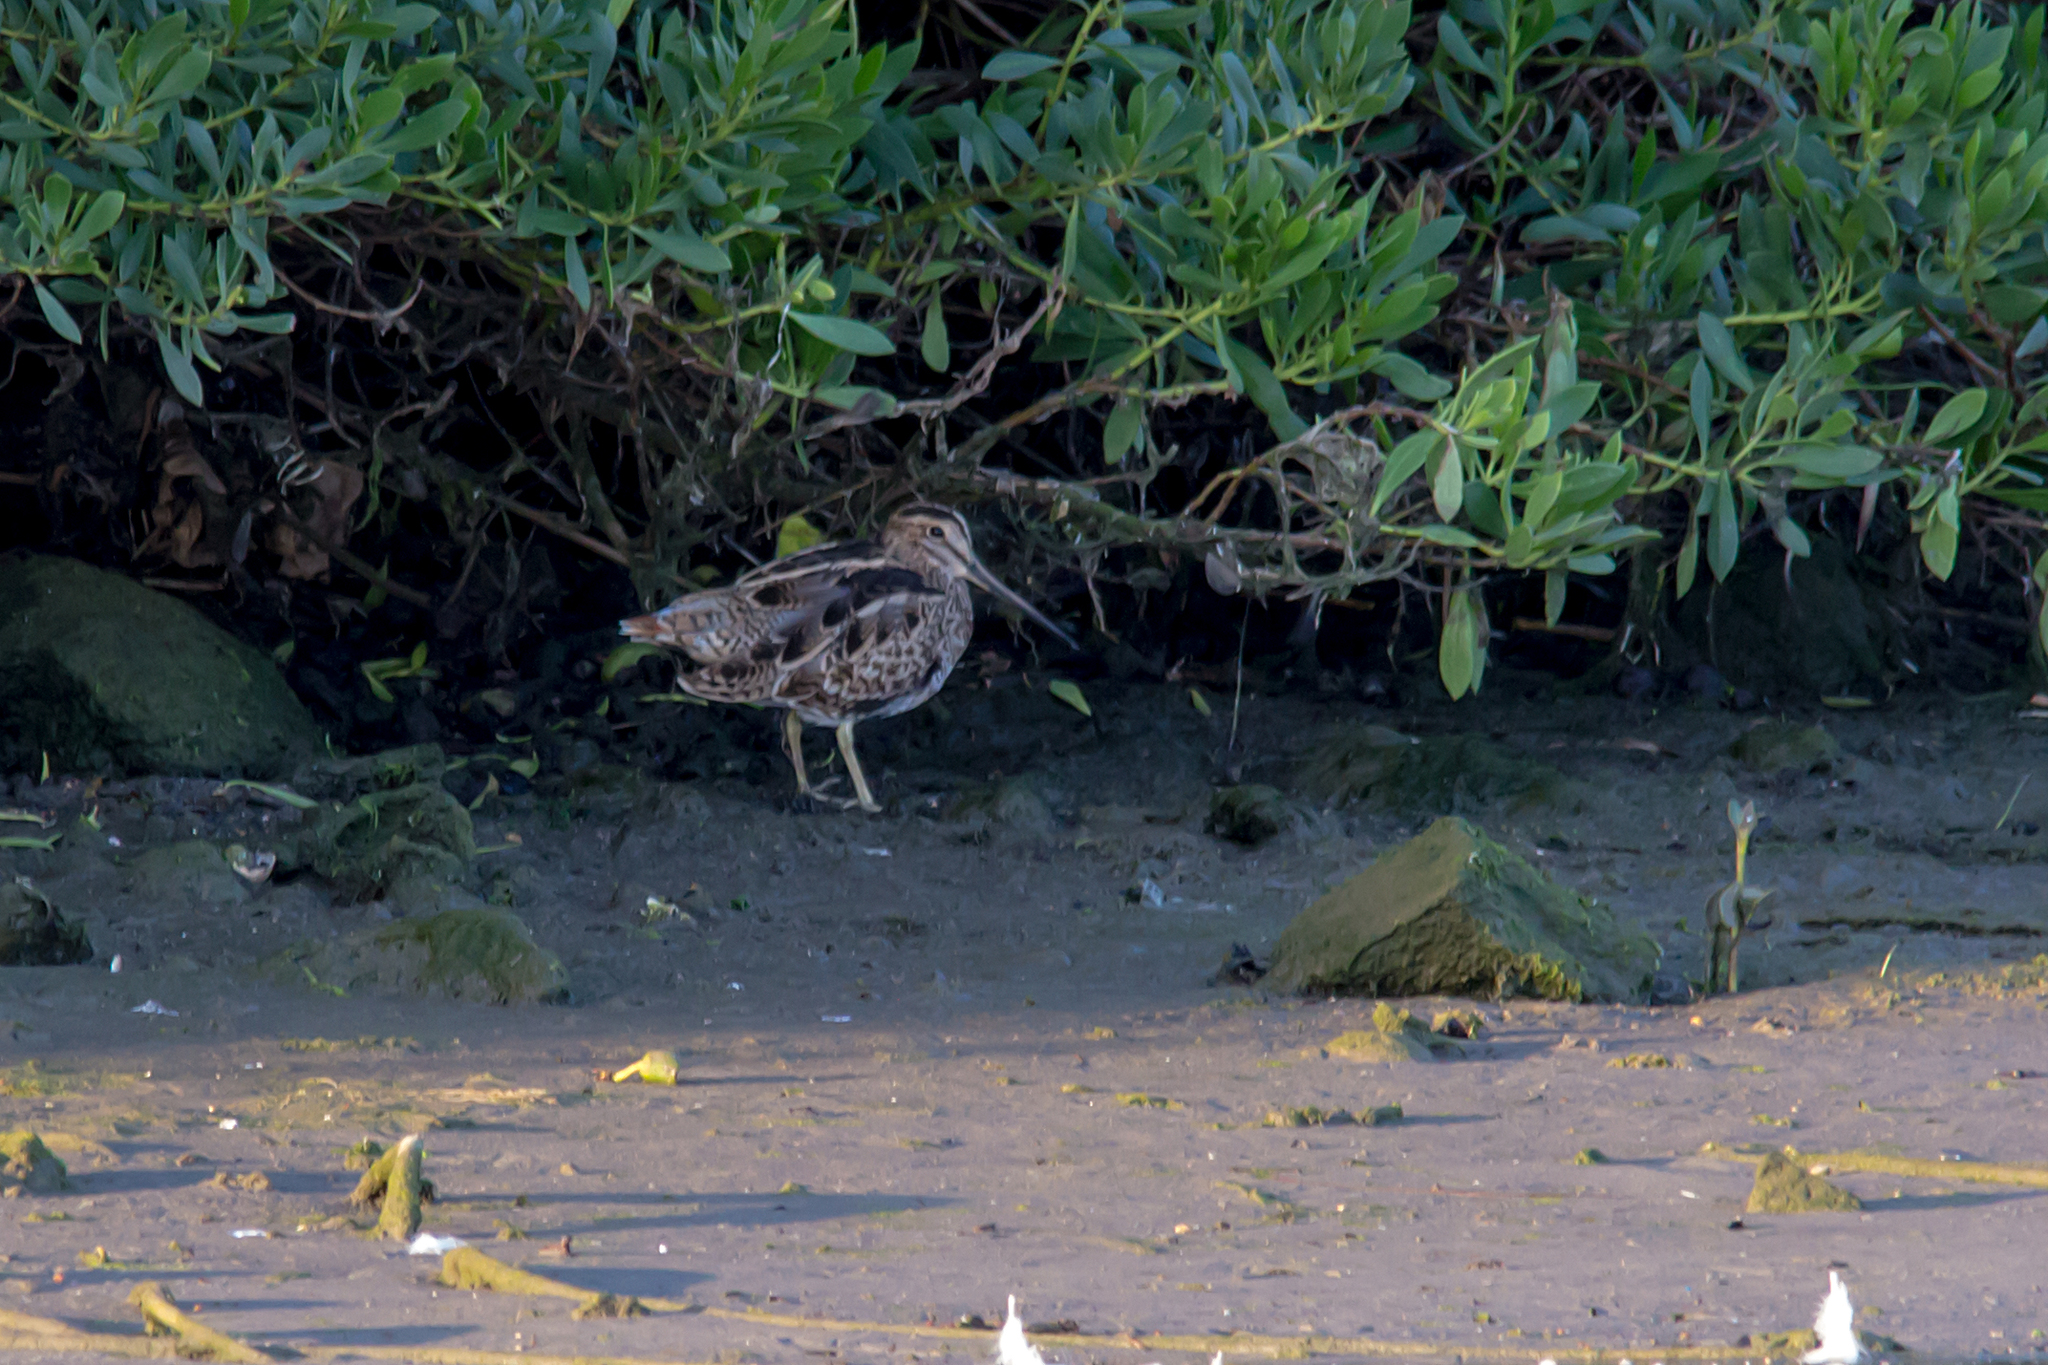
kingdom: Animalia
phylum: Chordata
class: Aves
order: Charadriiformes
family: Scolopacidae
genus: Gallinago
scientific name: Gallinago hardwickii
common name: Latham's snipe
